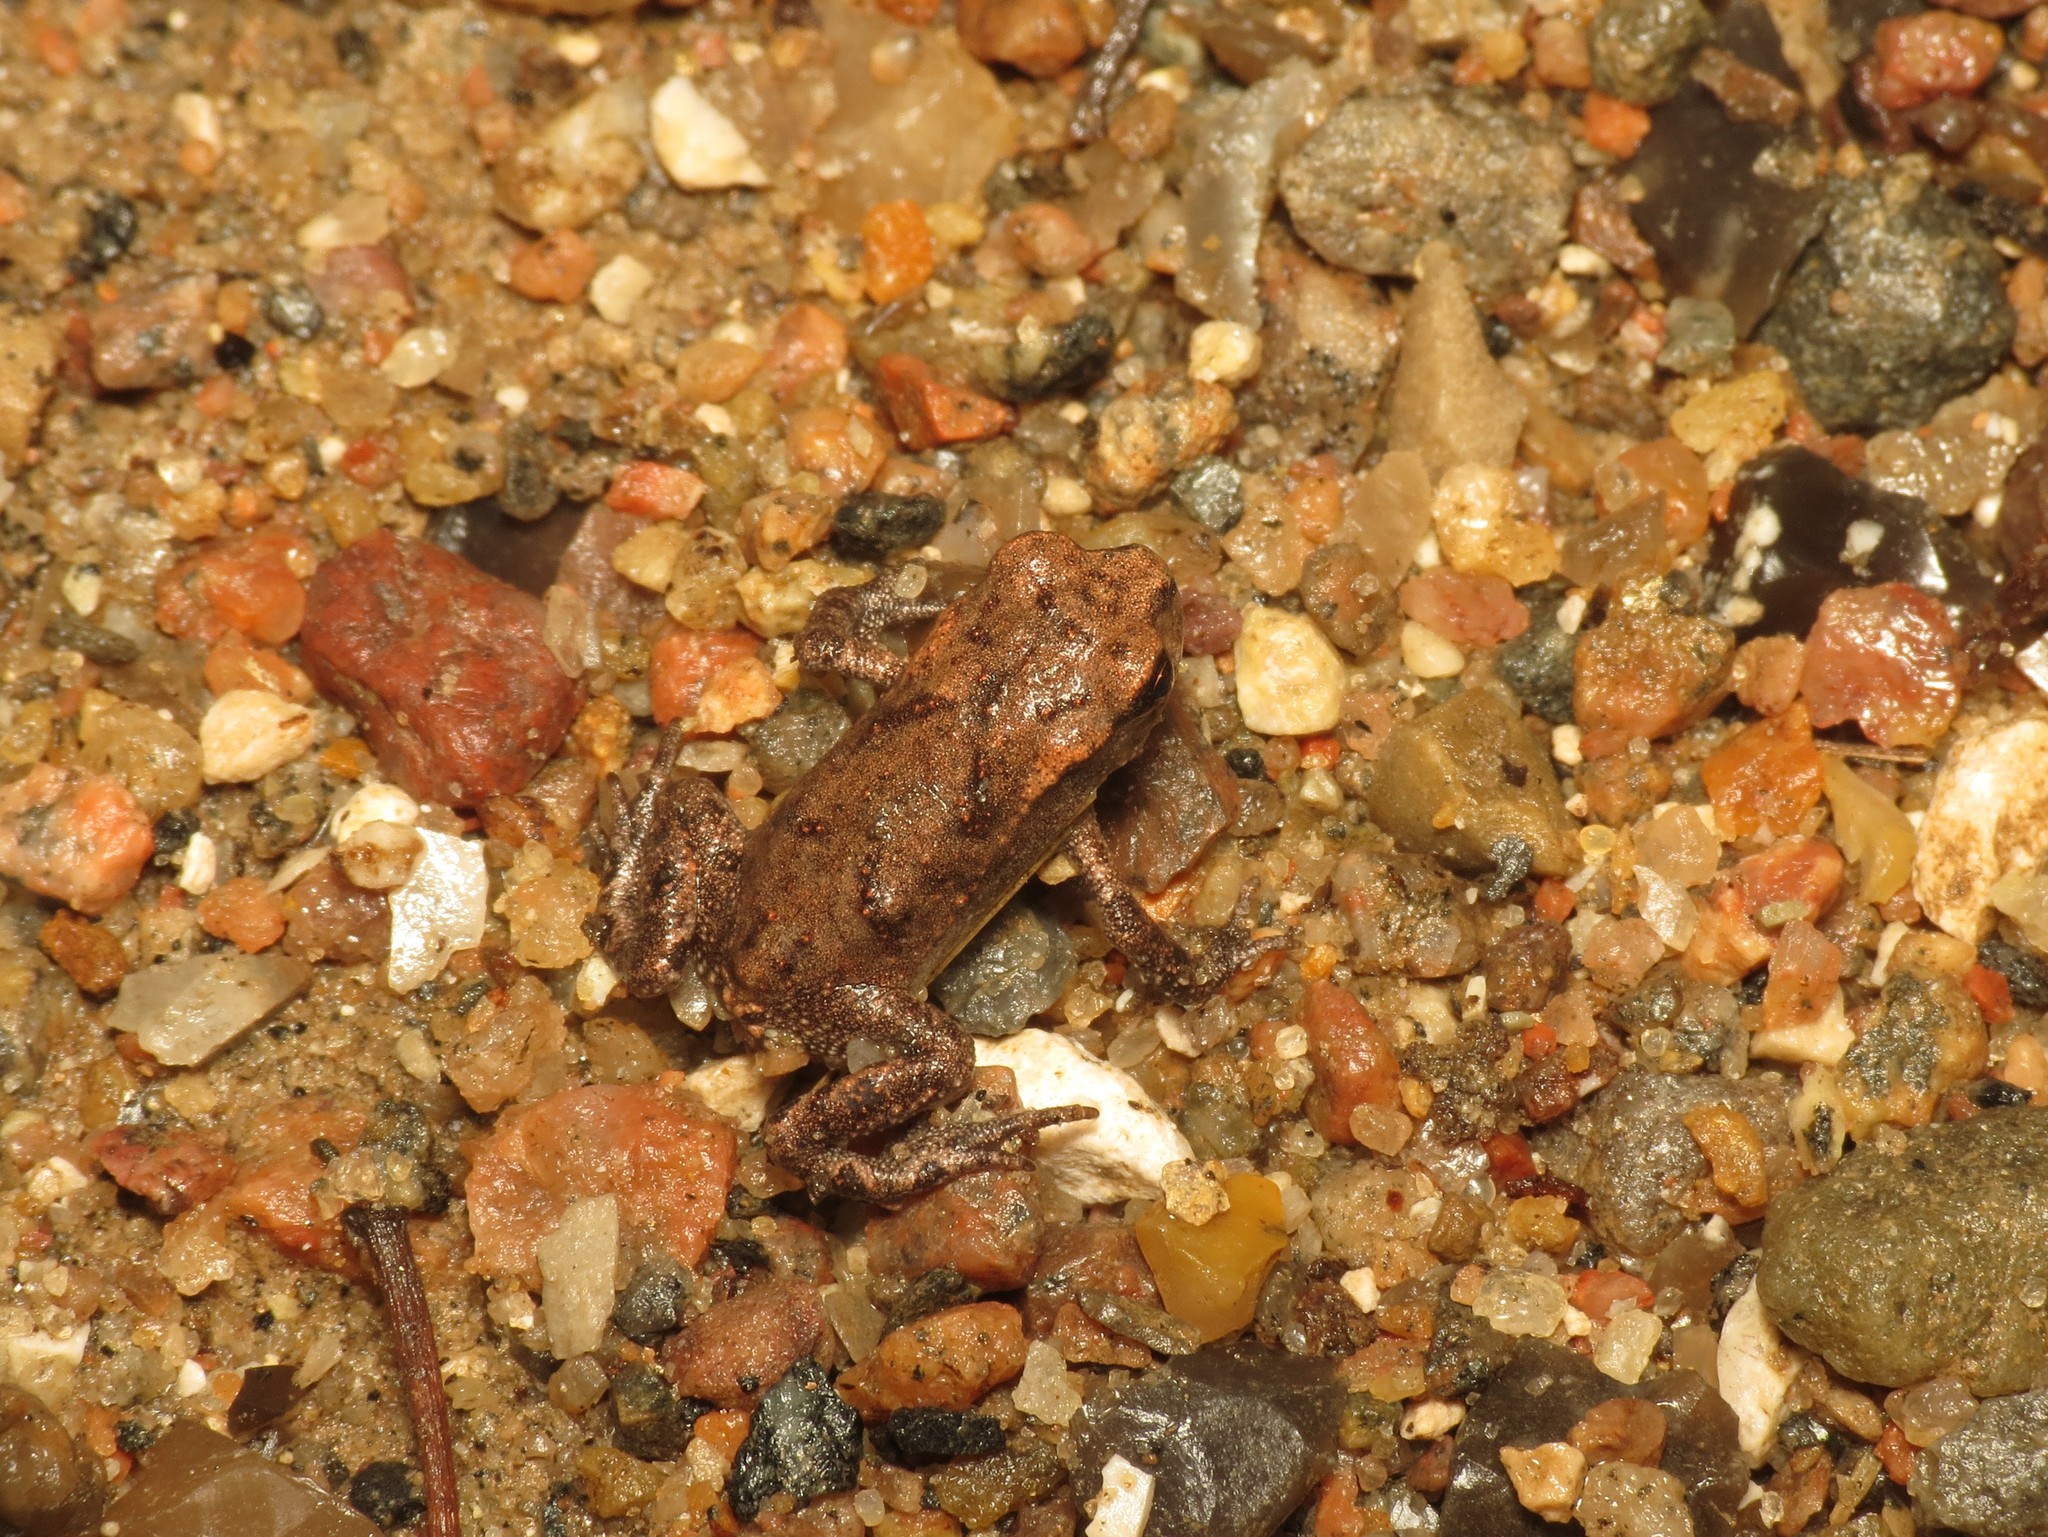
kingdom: Animalia
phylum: Chordata
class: Amphibia
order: Anura
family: Bufonidae
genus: Bufo
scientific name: Bufo bufo
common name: Common toad
